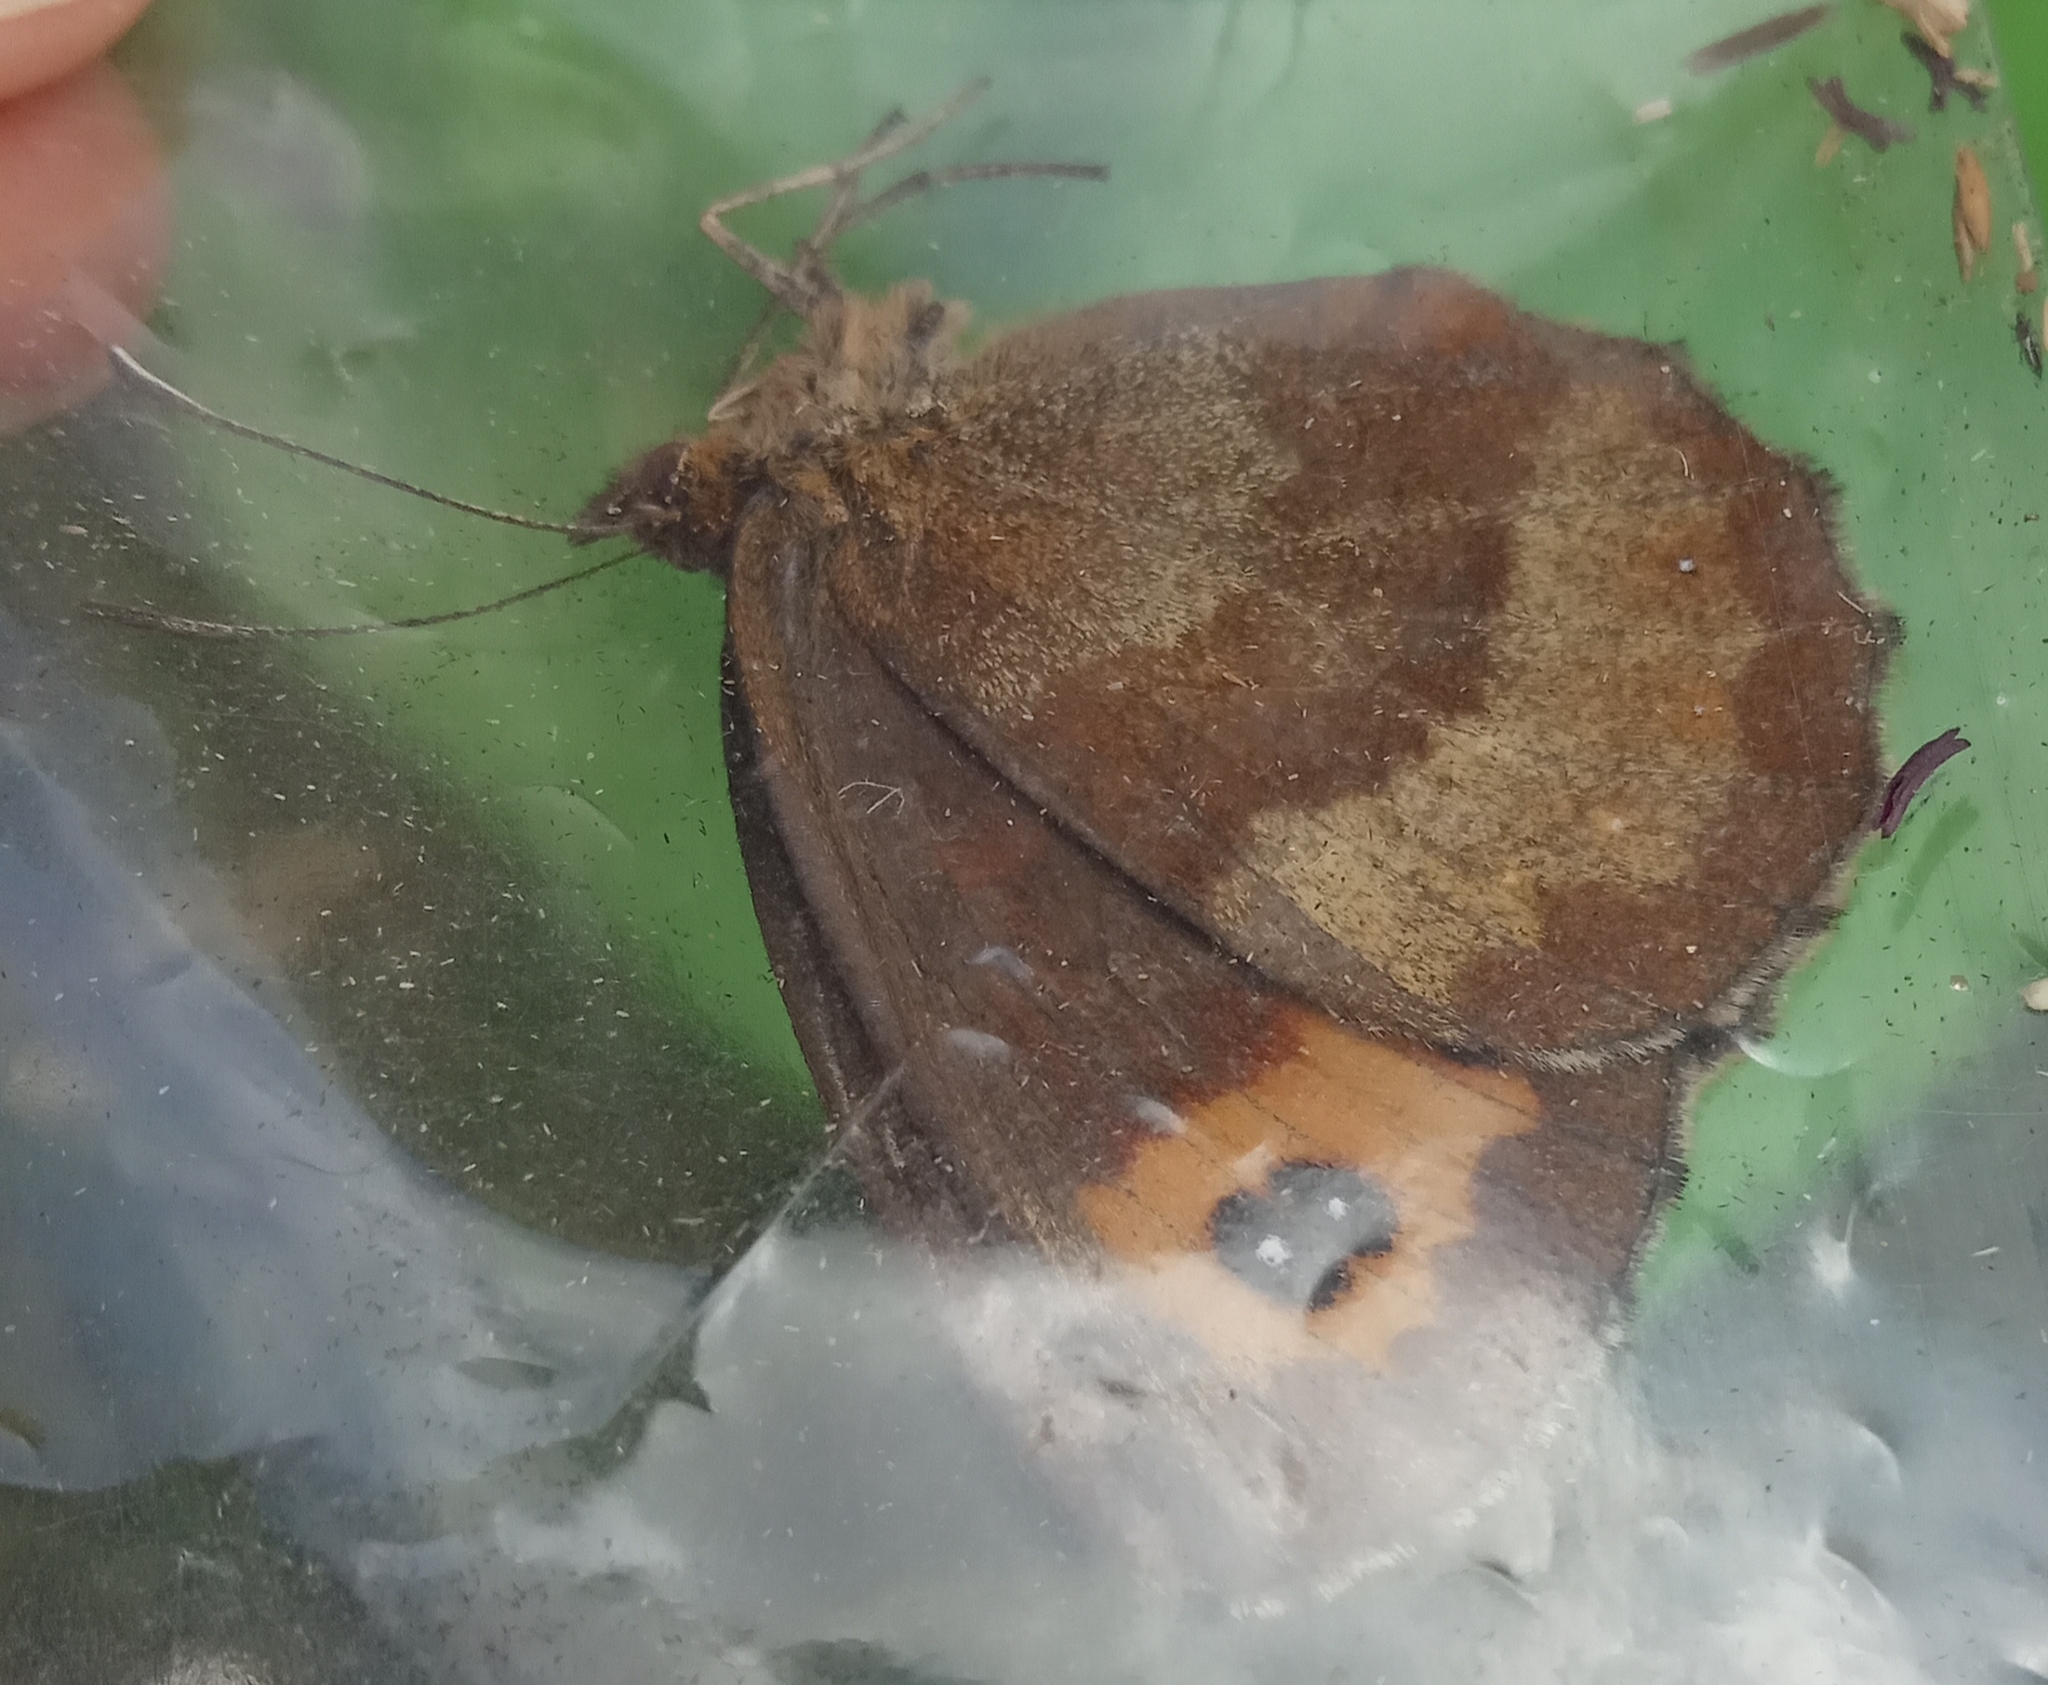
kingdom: Animalia
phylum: Arthropoda
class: Insecta
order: Lepidoptera
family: Nymphalidae
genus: Erebia
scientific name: Erebia aethiops
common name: Scotch argus
